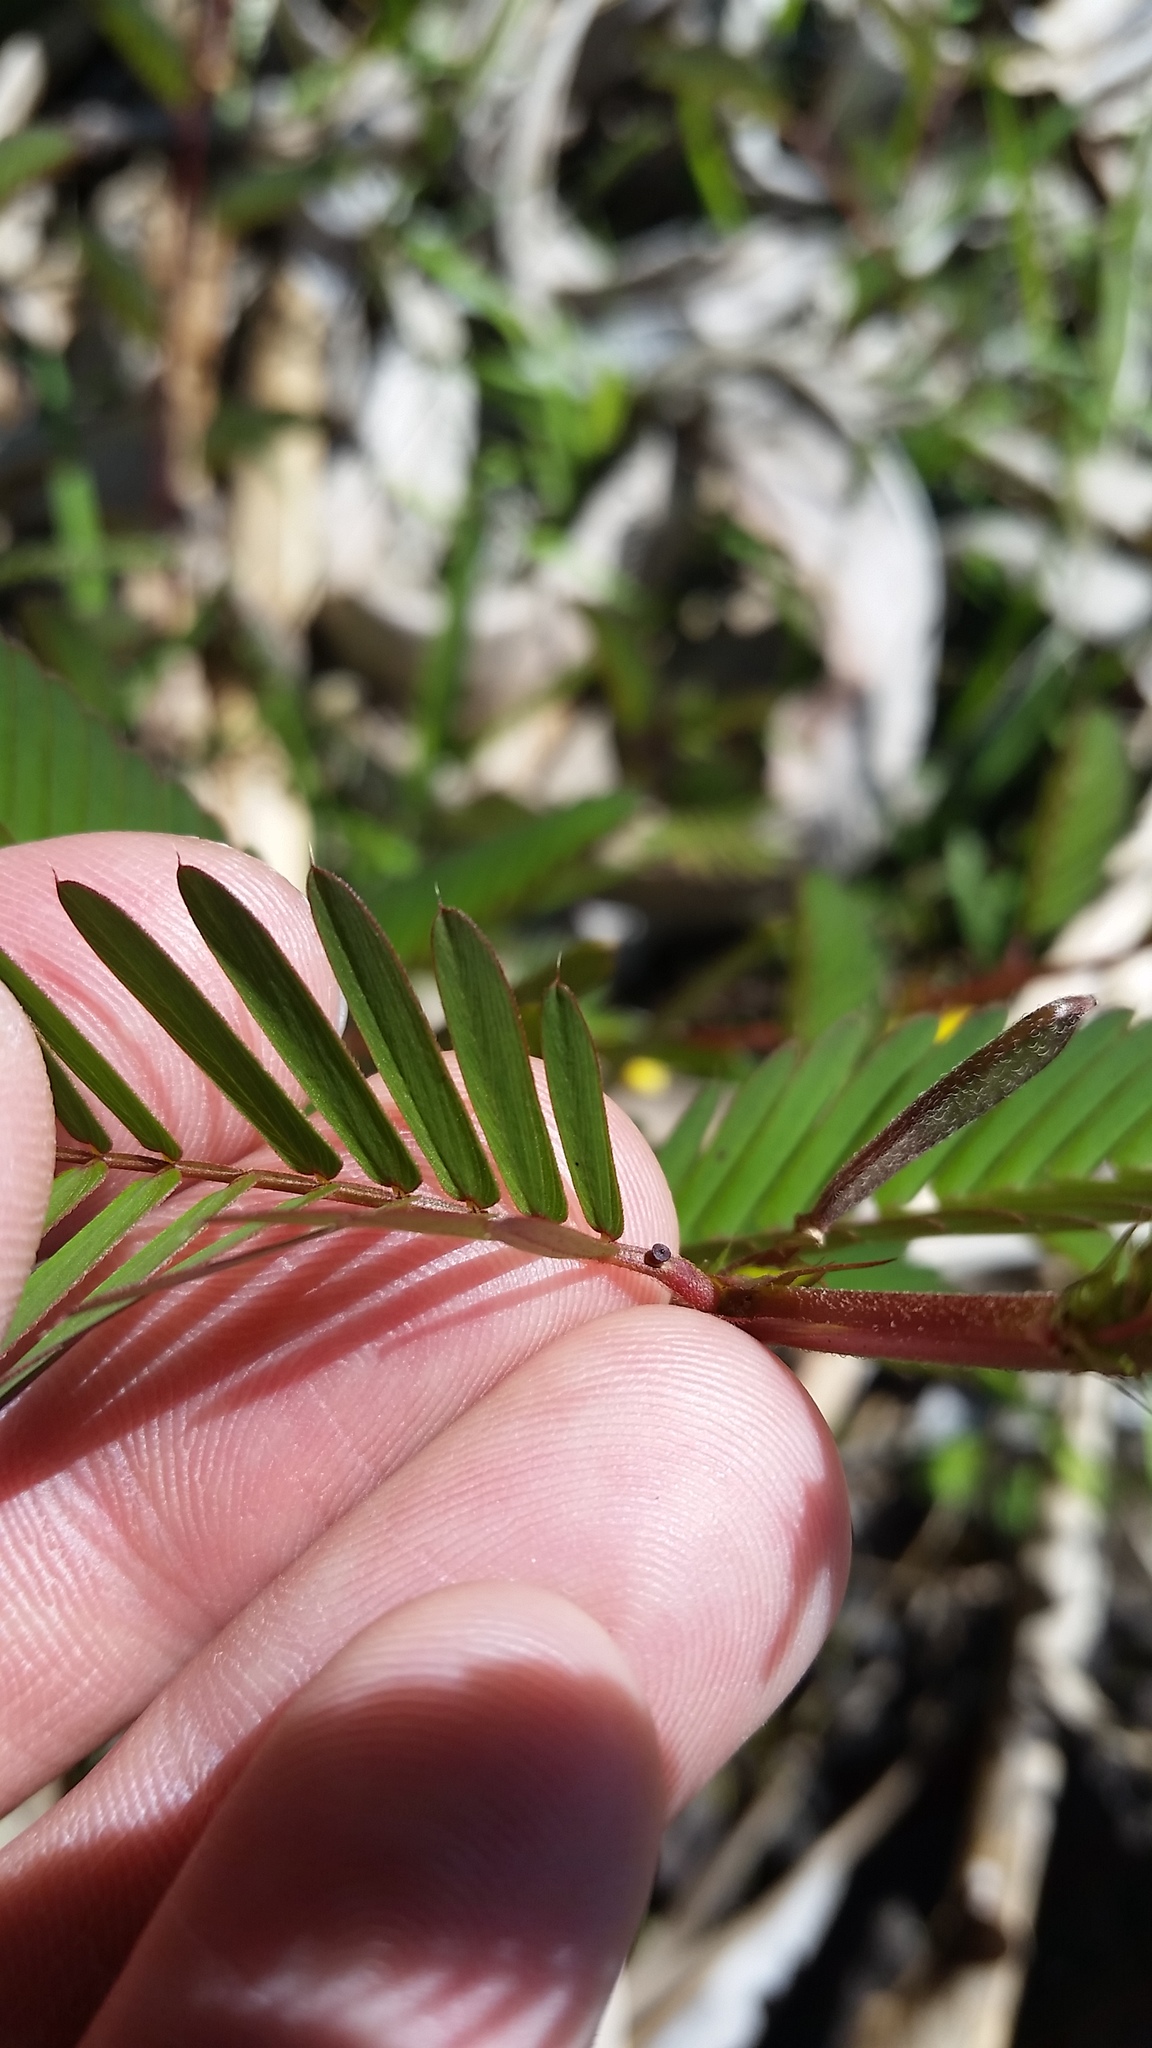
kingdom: Plantae
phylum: Tracheophyta
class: Magnoliopsida
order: Fabales
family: Fabaceae
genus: Chamaecrista
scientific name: Chamaecrista nictitans
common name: Sensitive cassia
